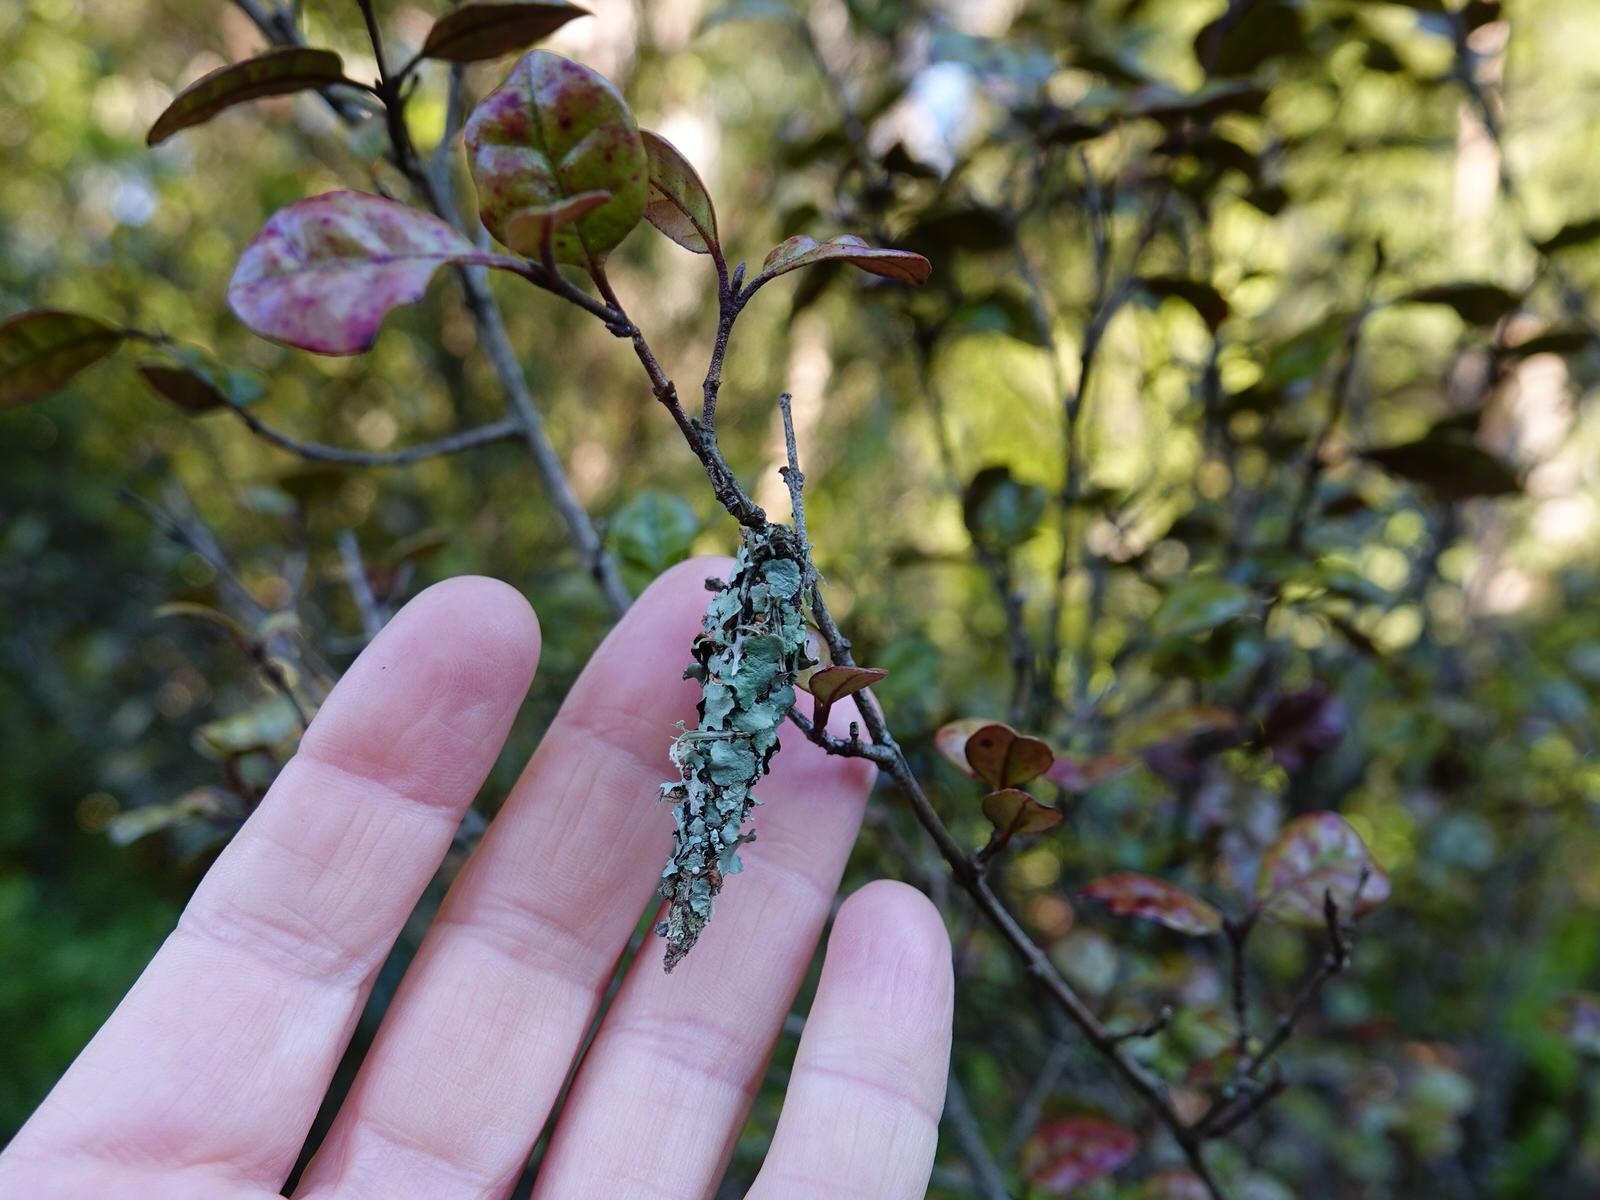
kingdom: Animalia
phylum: Arthropoda
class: Insecta
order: Lepidoptera
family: Psychidae
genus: Liothula
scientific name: Liothula omnivora
